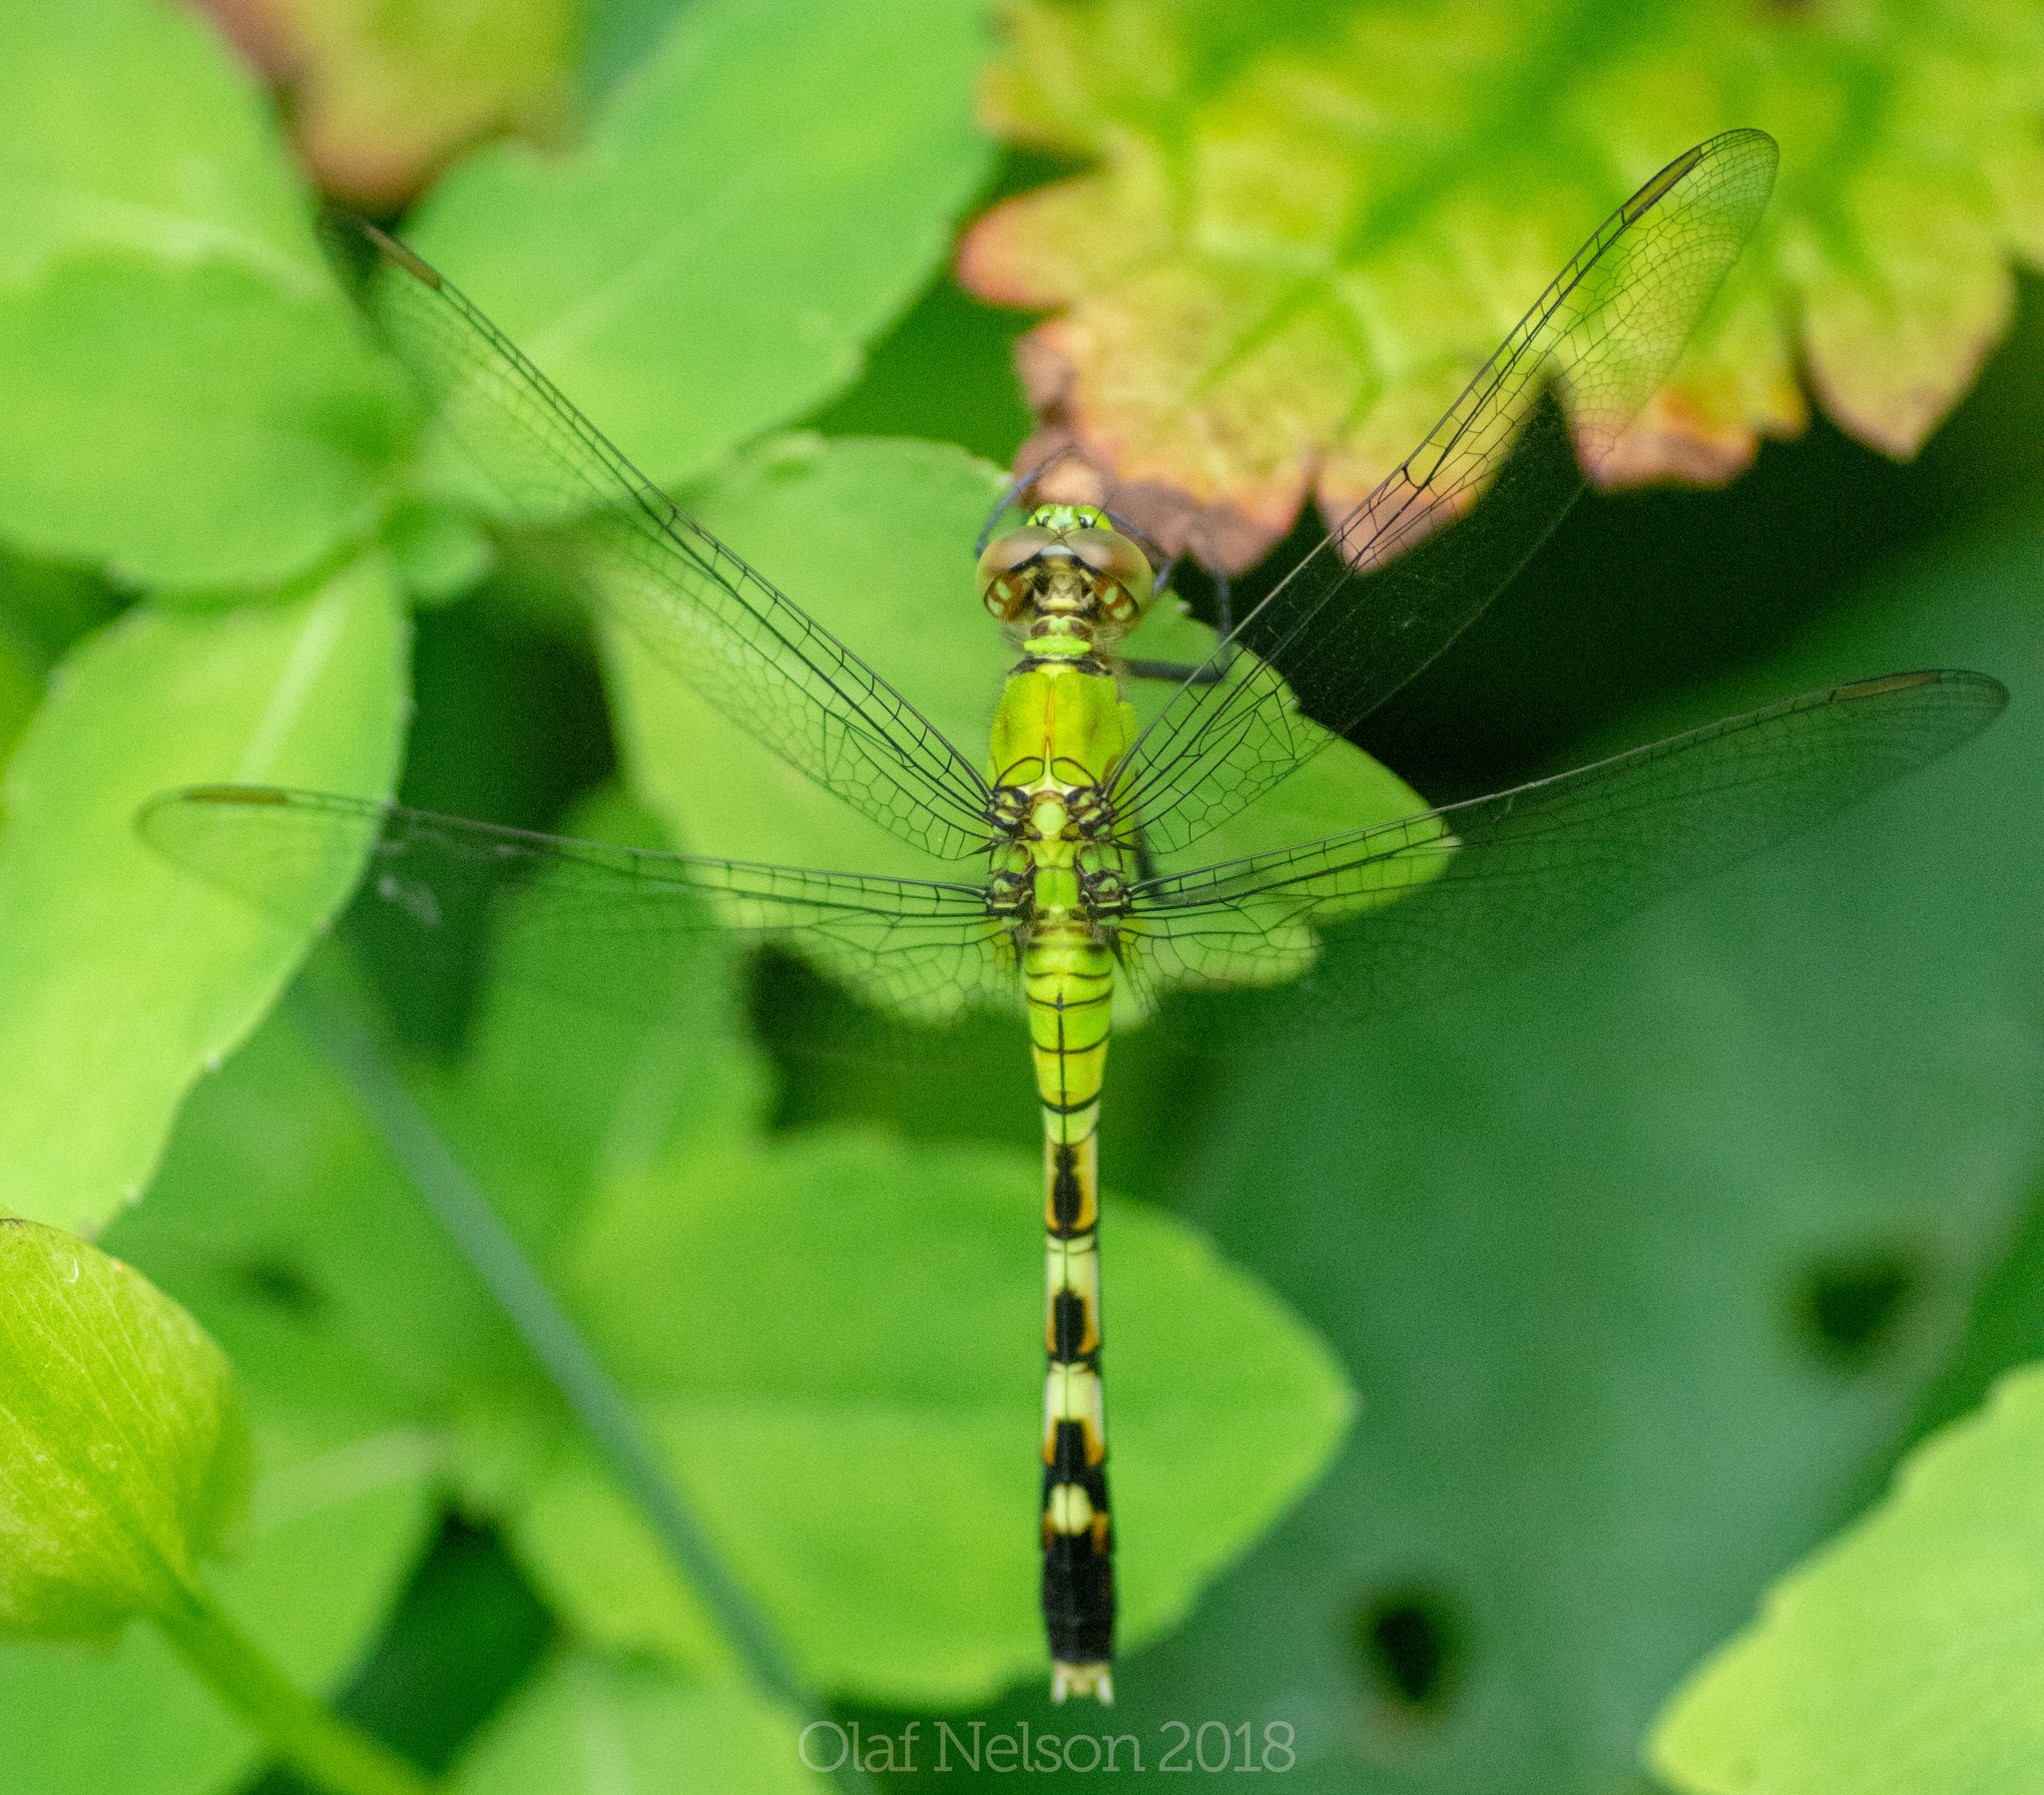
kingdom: Animalia
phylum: Arthropoda
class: Insecta
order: Odonata
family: Libellulidae
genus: Erythemis
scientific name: Erythemis simplicicollis
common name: Eastern pondhawk
